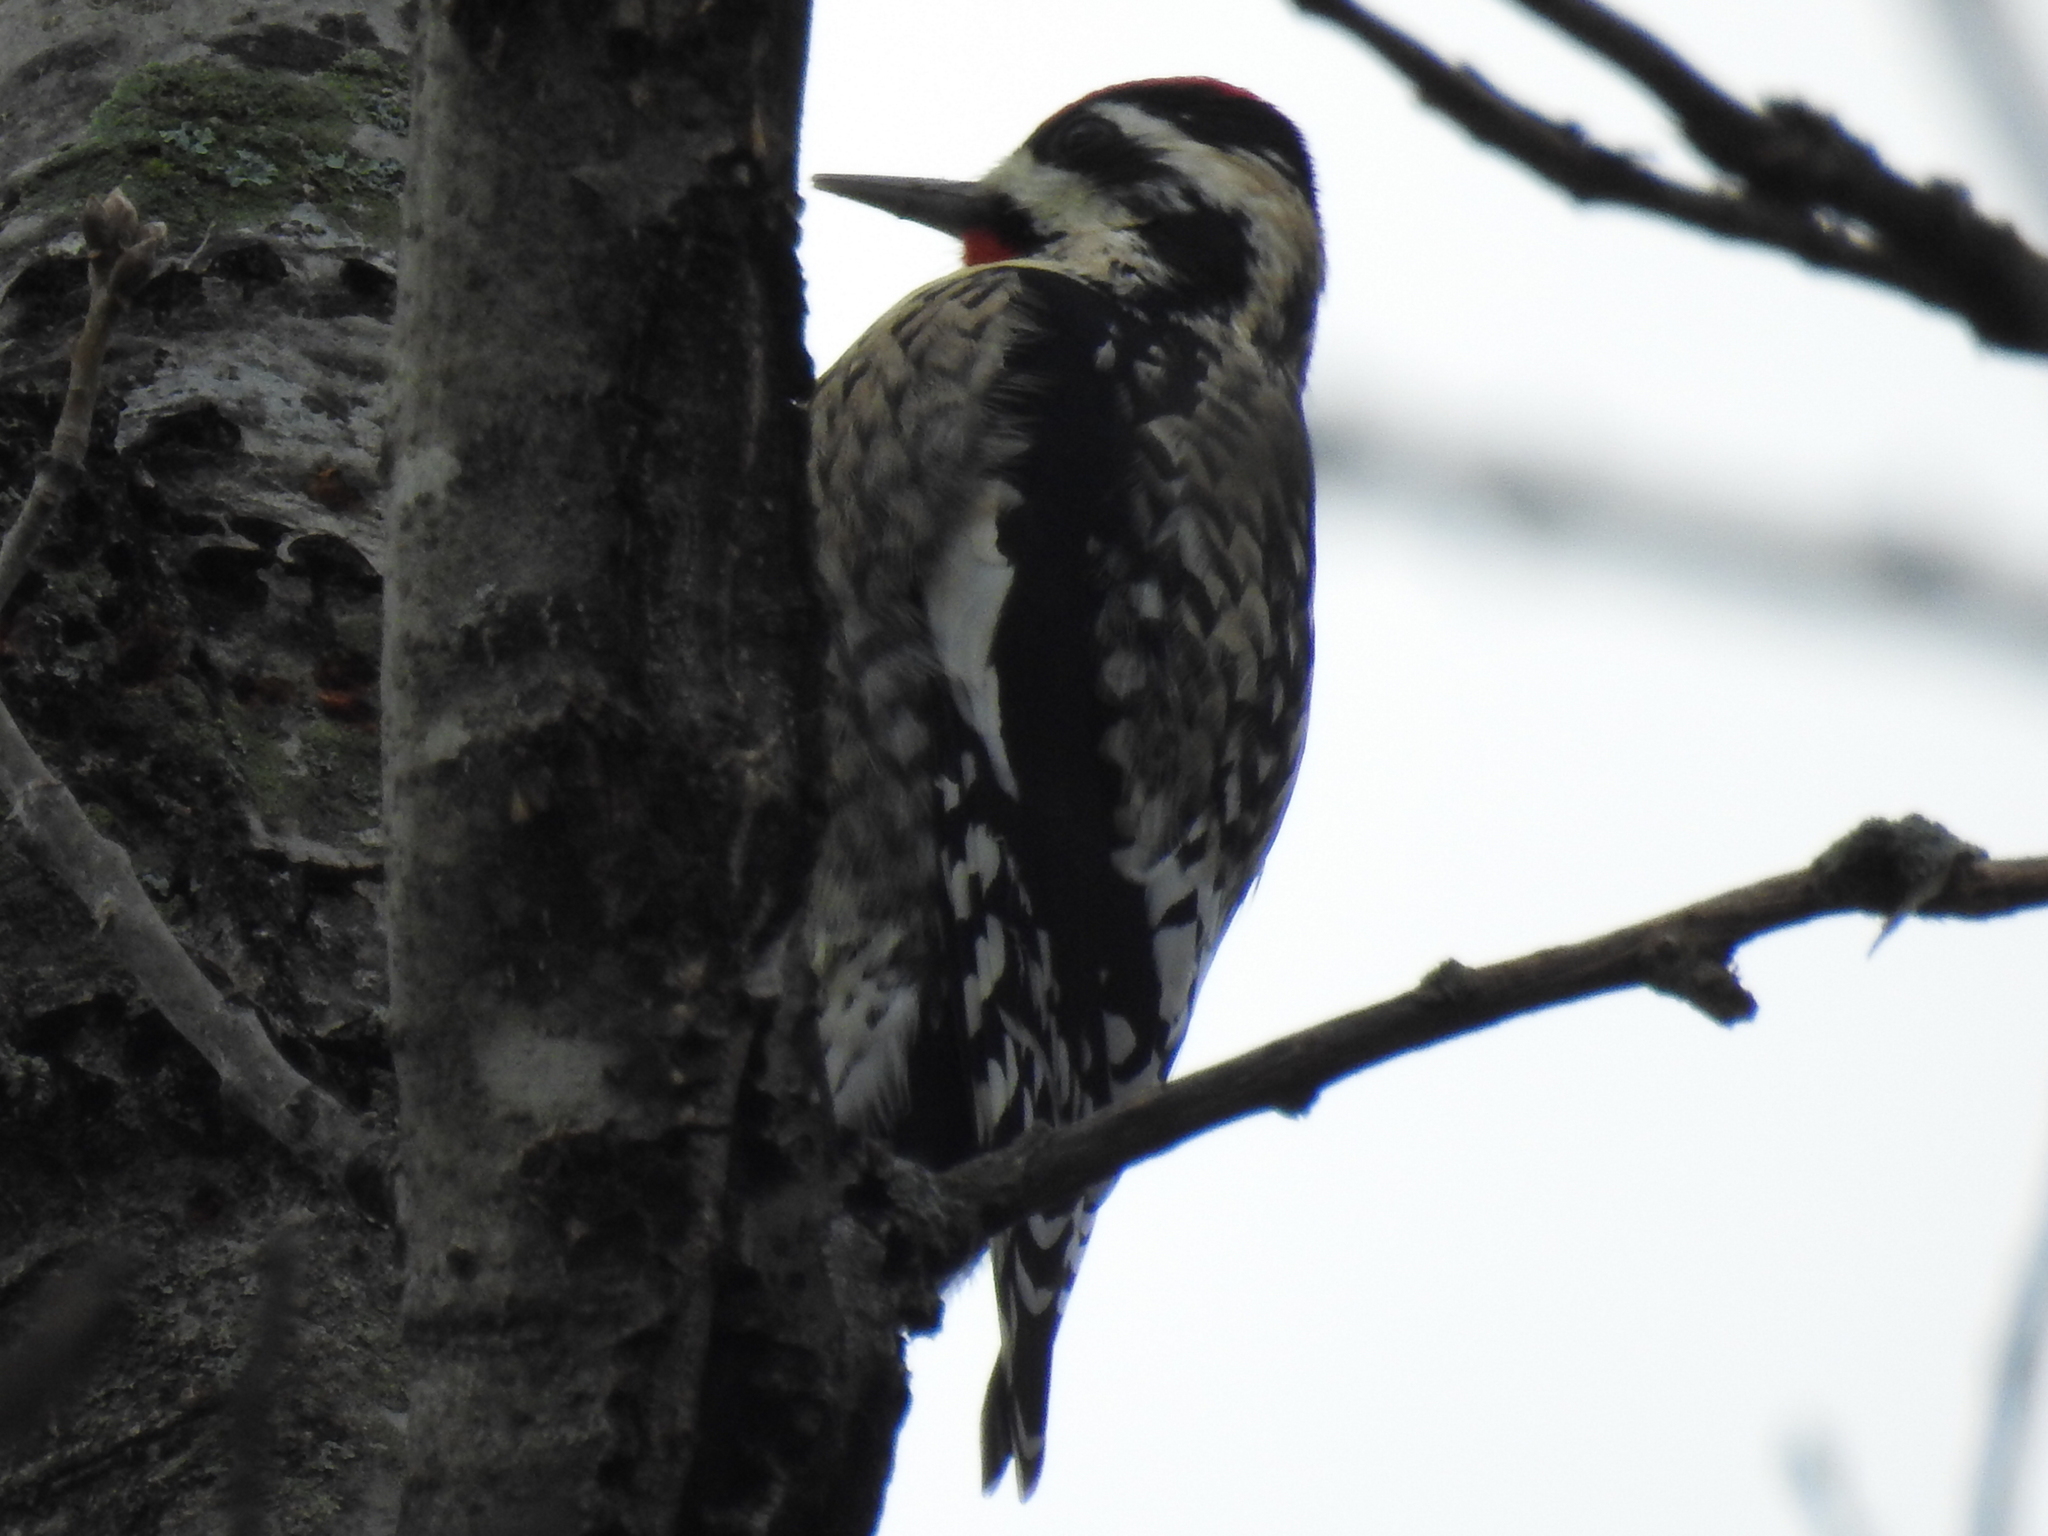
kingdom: Animalia
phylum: Chordata
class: Aves
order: Piciformes
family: Picidae
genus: Sphyrapicus
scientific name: Sphyrapicus varius
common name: Yellow-bellied sapsucker
